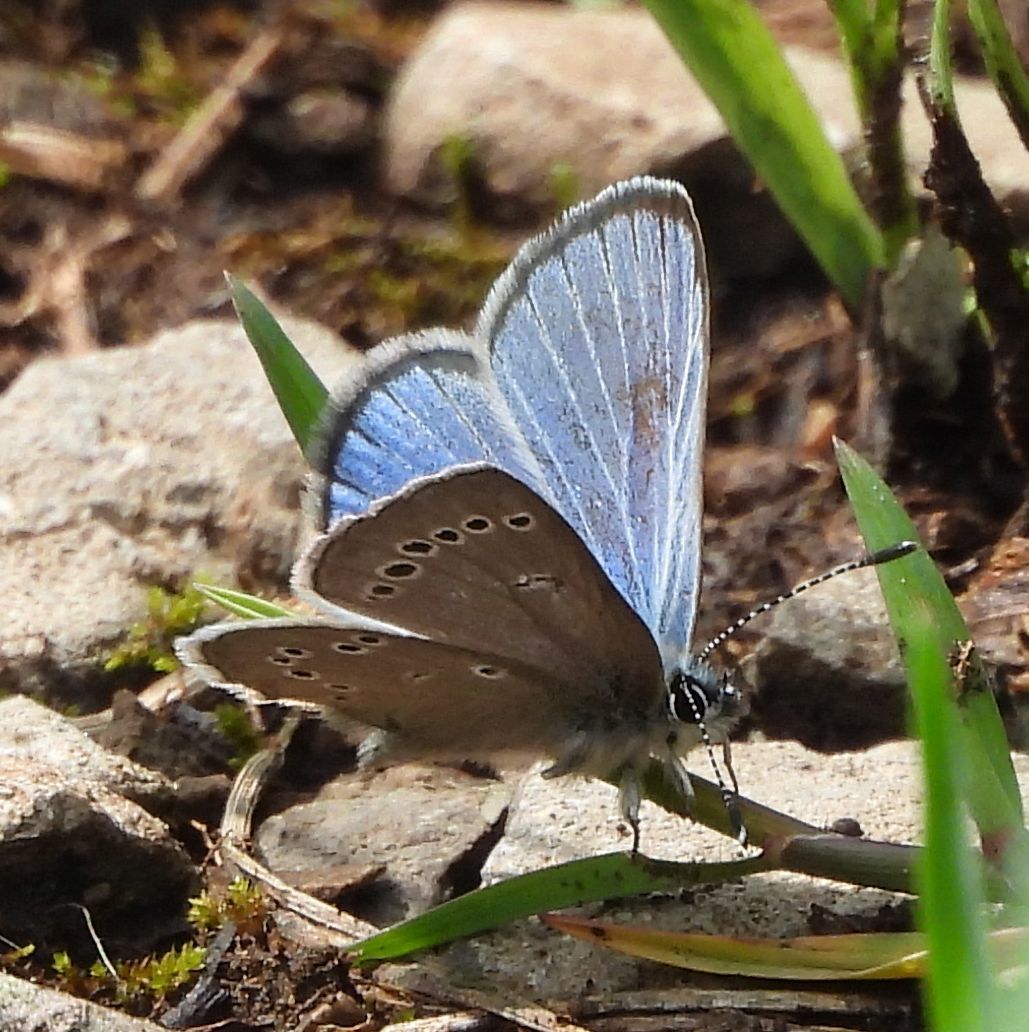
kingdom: Animalia
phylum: Arthropoda
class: Insecta
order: Lepidoptera
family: Lycaenidae
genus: Glaucopsyche
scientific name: Glaucopsyche lygdamus
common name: Silvery blue
